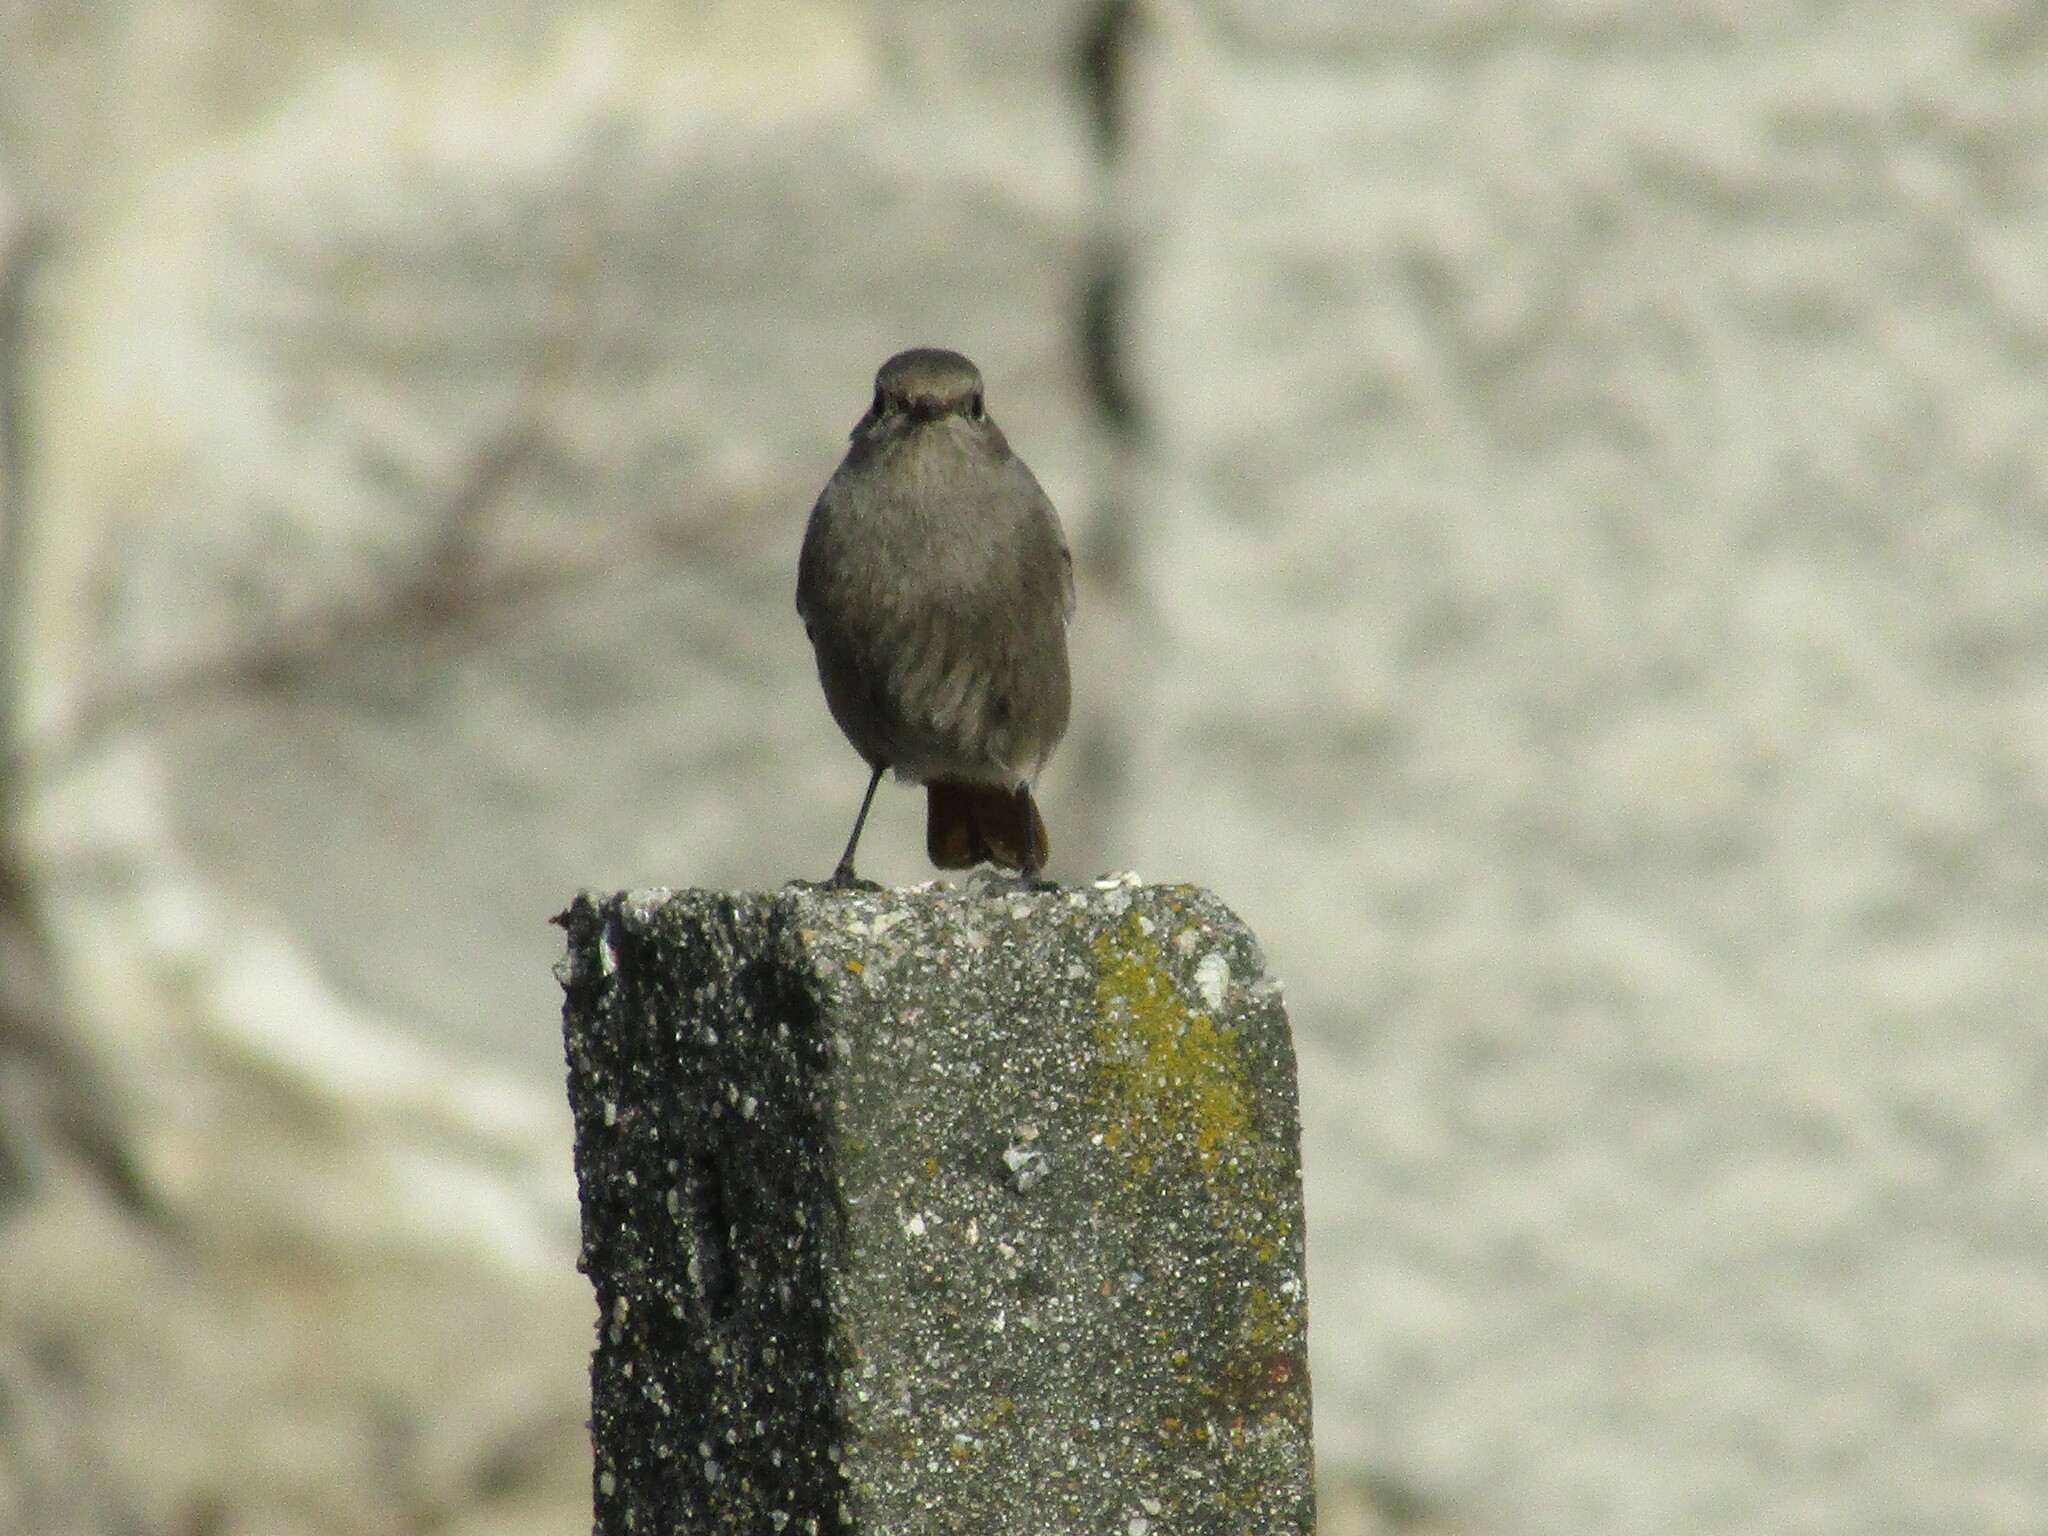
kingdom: Animalia
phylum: Chordata
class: Aves
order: Passeriformes
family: Muscicapidae
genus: Phoenicurus
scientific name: Phoenicurus ochruros
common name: Black redstart
